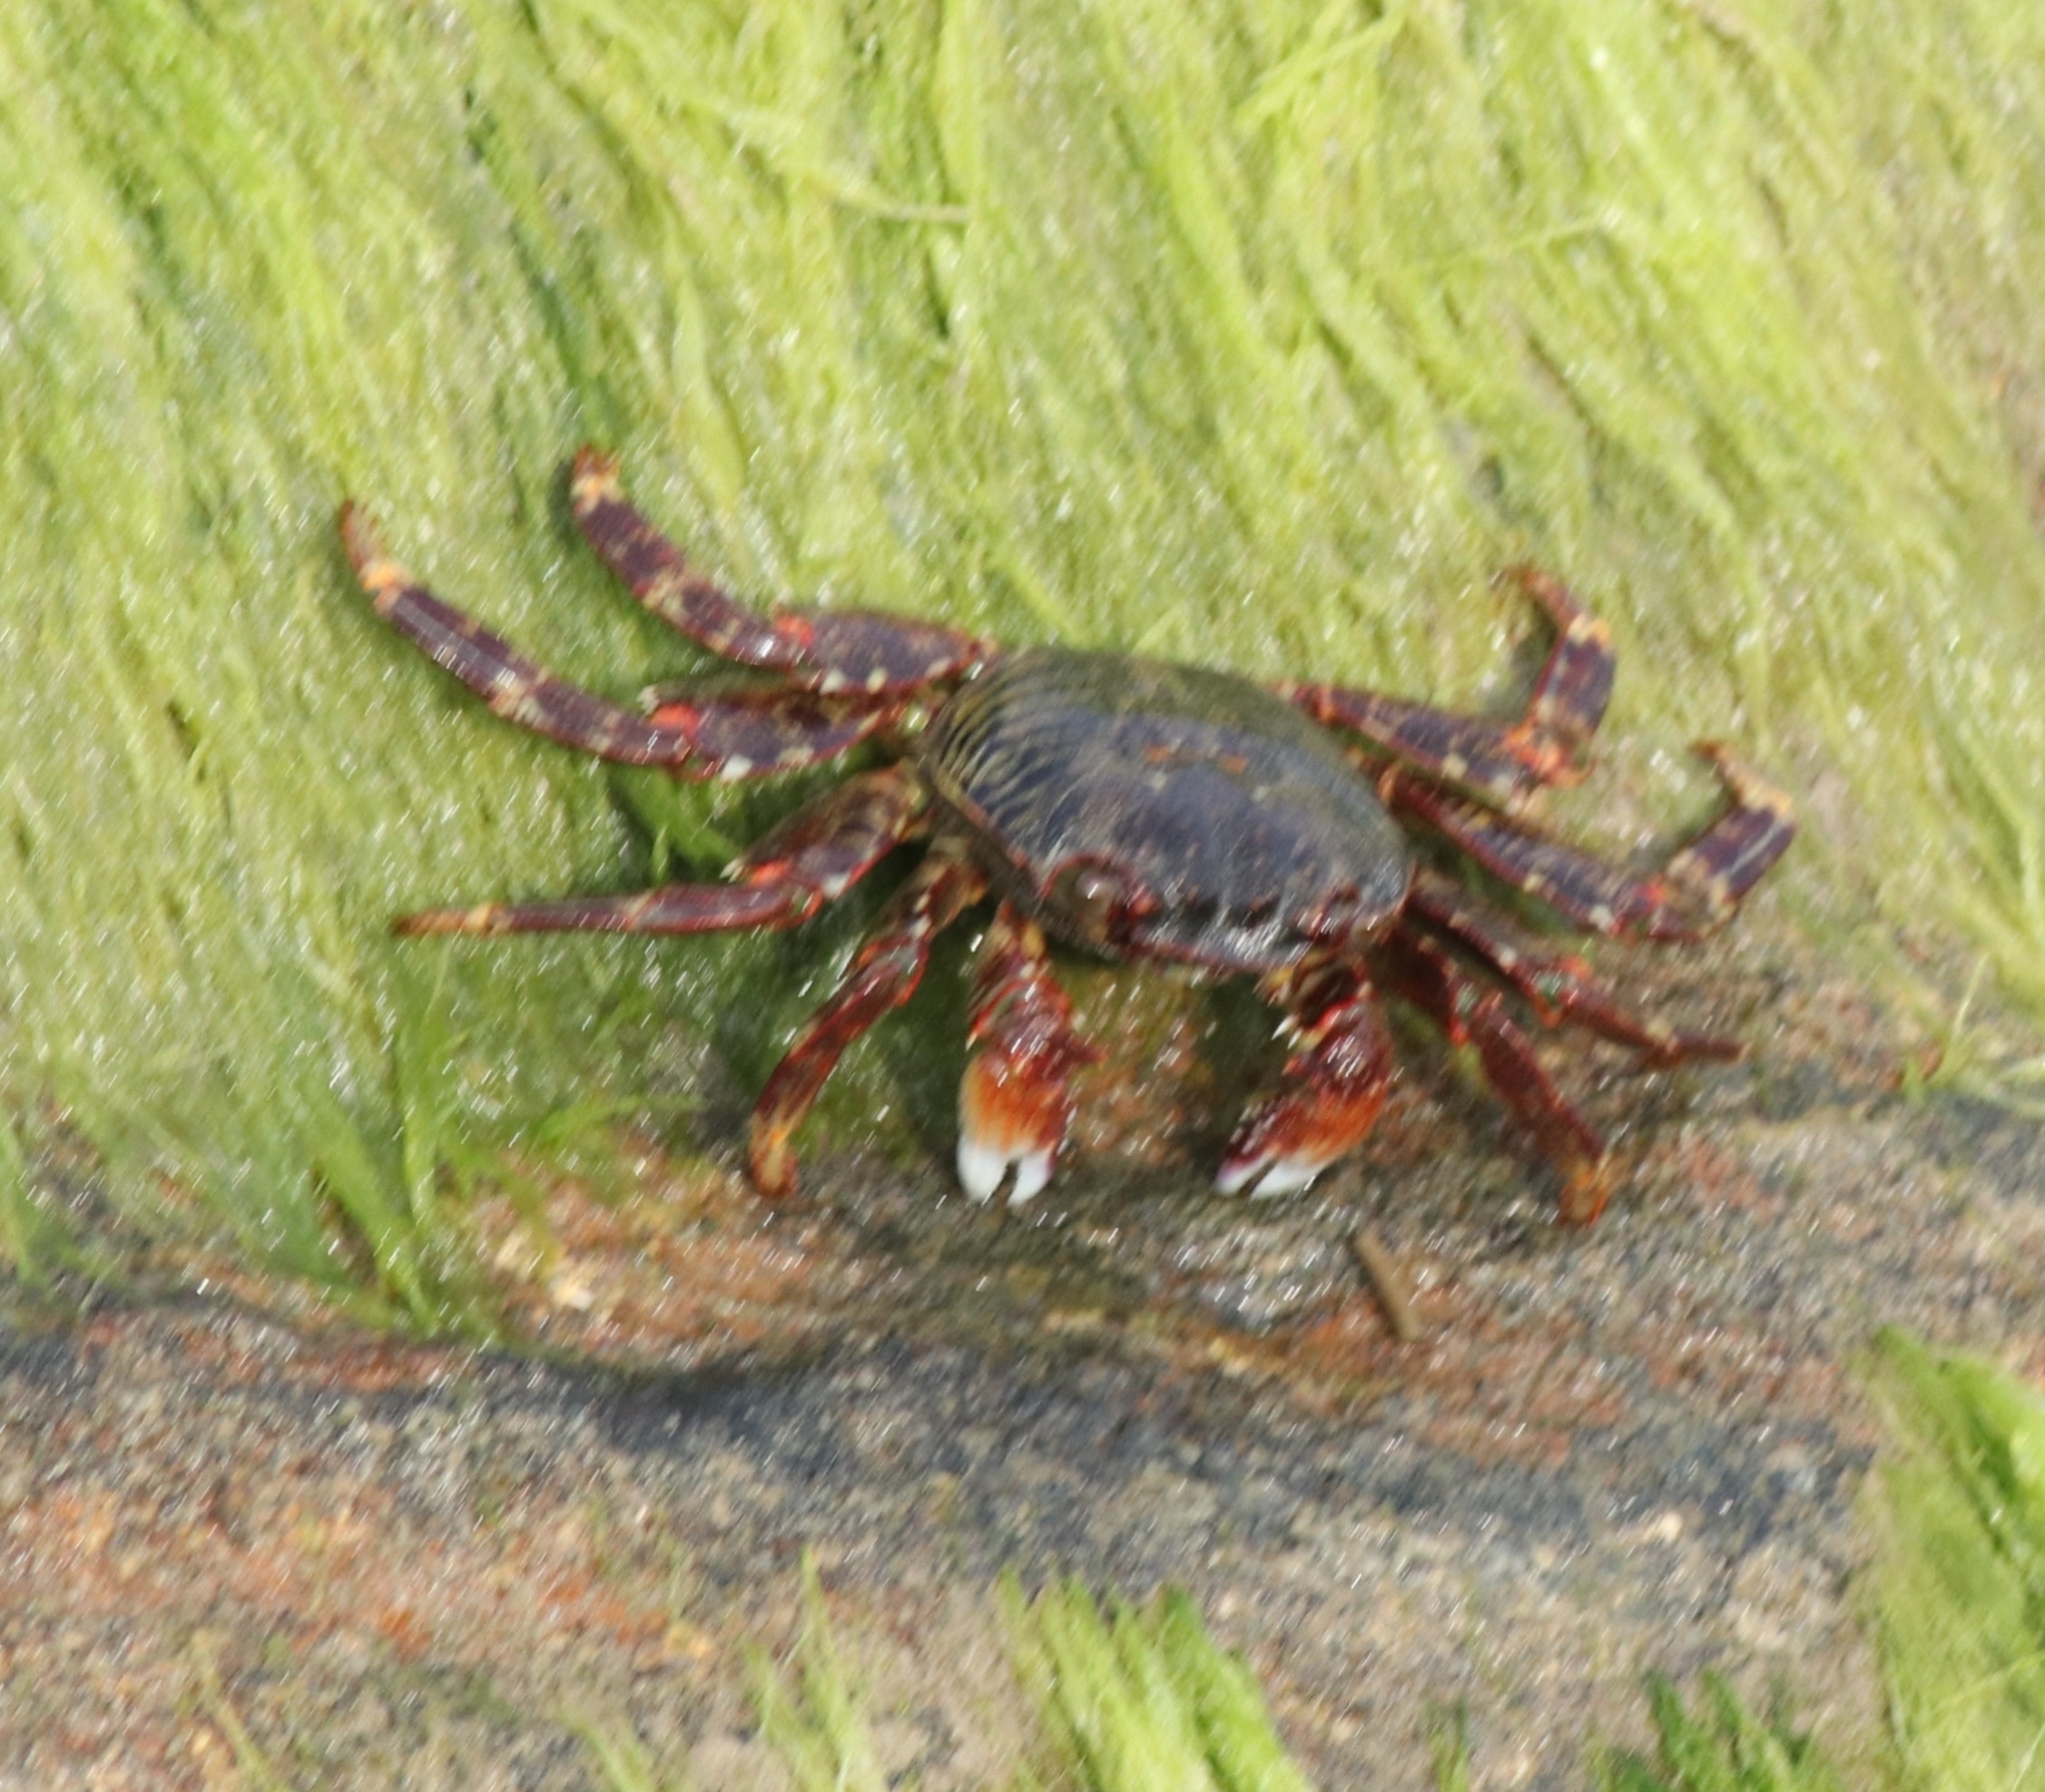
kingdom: Animalia
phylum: Arthropoda
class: Malacostraca
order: Decapoda
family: Grapsidae
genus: Grapsus
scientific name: Grapsus albolineatus
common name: Mottled lightfoot crab
